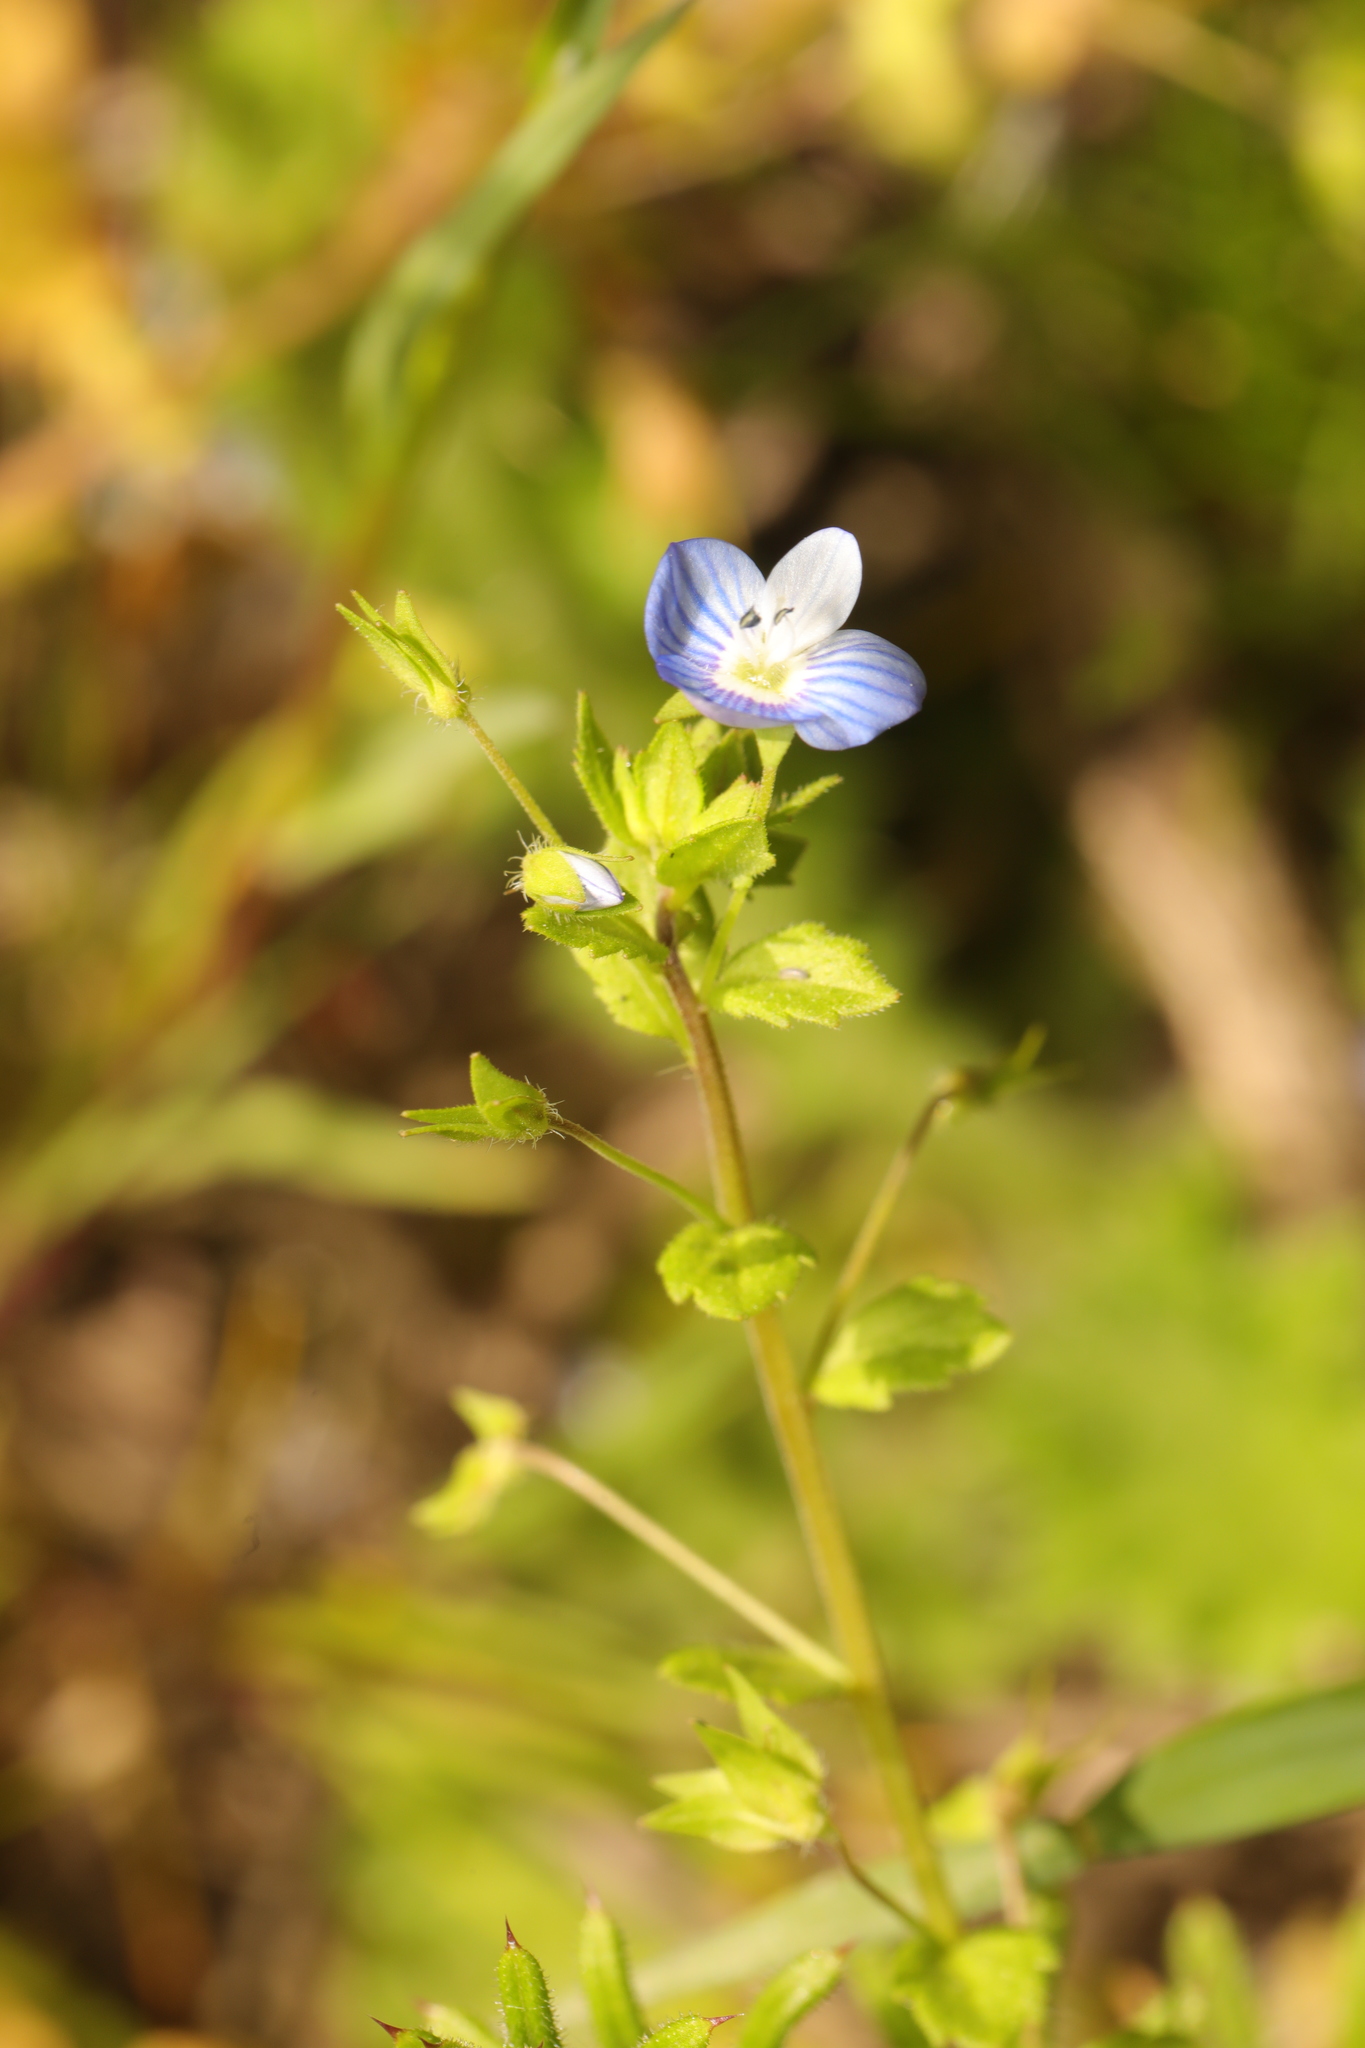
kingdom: Plantae
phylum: Tracheophyta
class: Magnoliopsida
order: Lamiales
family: Plantaginaceae
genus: Veronica
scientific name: Veronica persica
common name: Common field-speedwell
